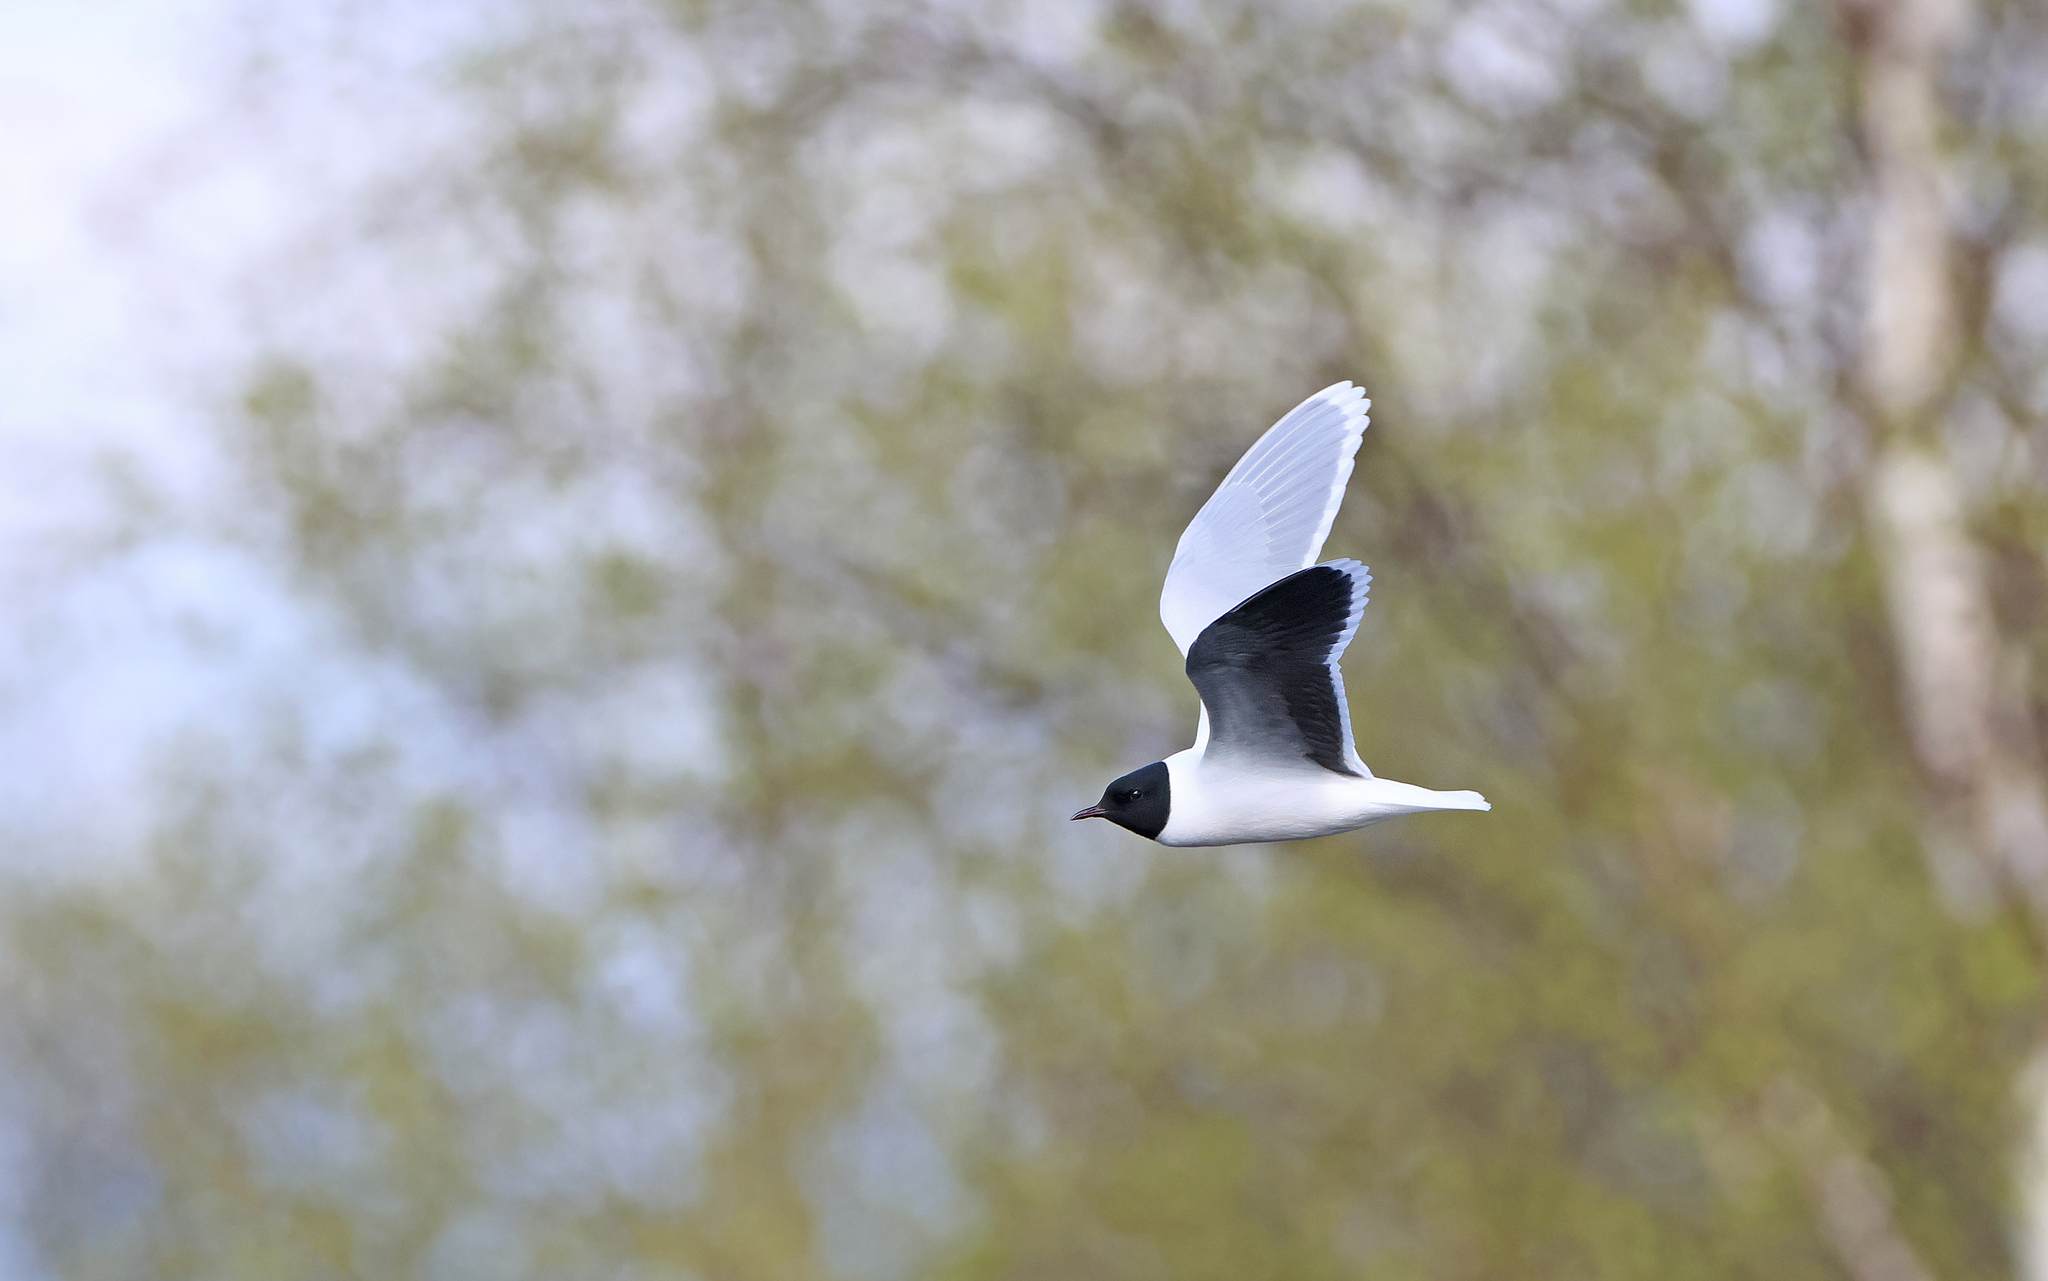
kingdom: Animalia
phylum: Chordata
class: Aves
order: Charadriiformes
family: Laridae
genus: Hydrocoloeus
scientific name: Hydrocoloeus minutus
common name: Little gull
